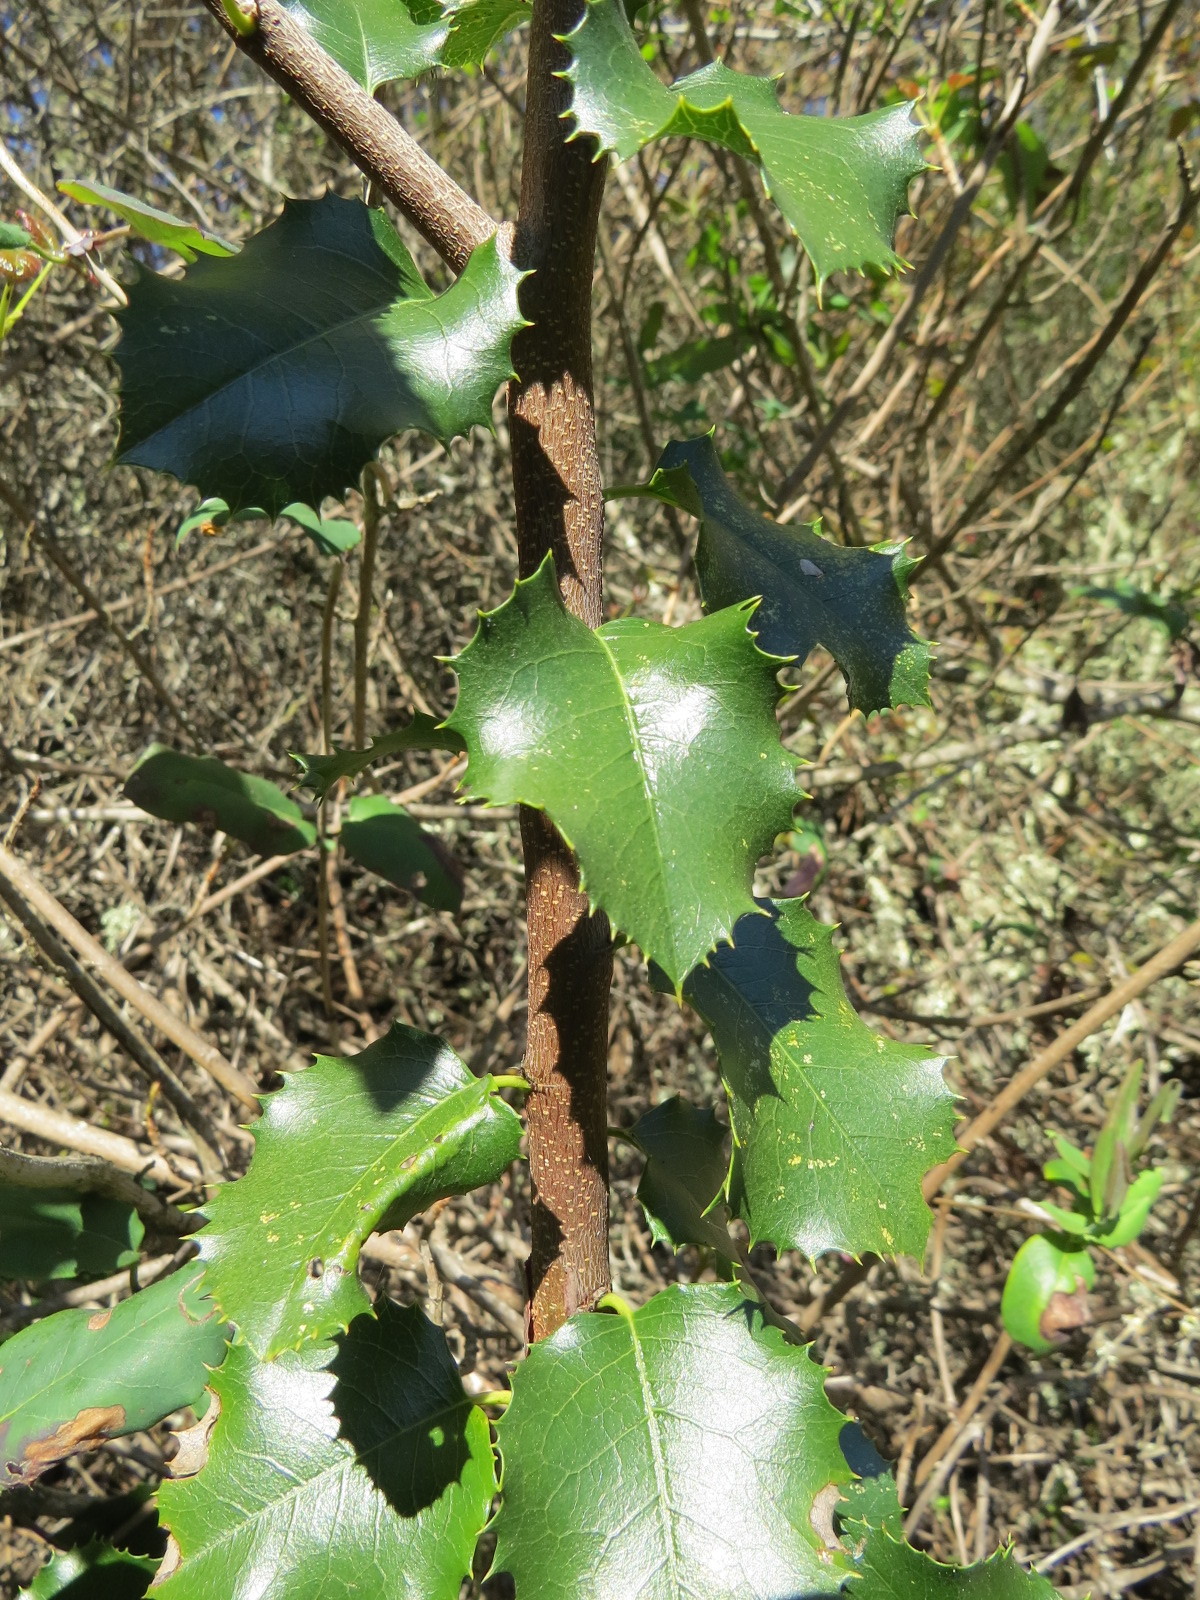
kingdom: Plantae
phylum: Tracheophyta
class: Magnoliopsida
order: Rosales
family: Rosaceae
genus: Prunus
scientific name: Prunus ilicifolia
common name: Hollyleaf cherry
